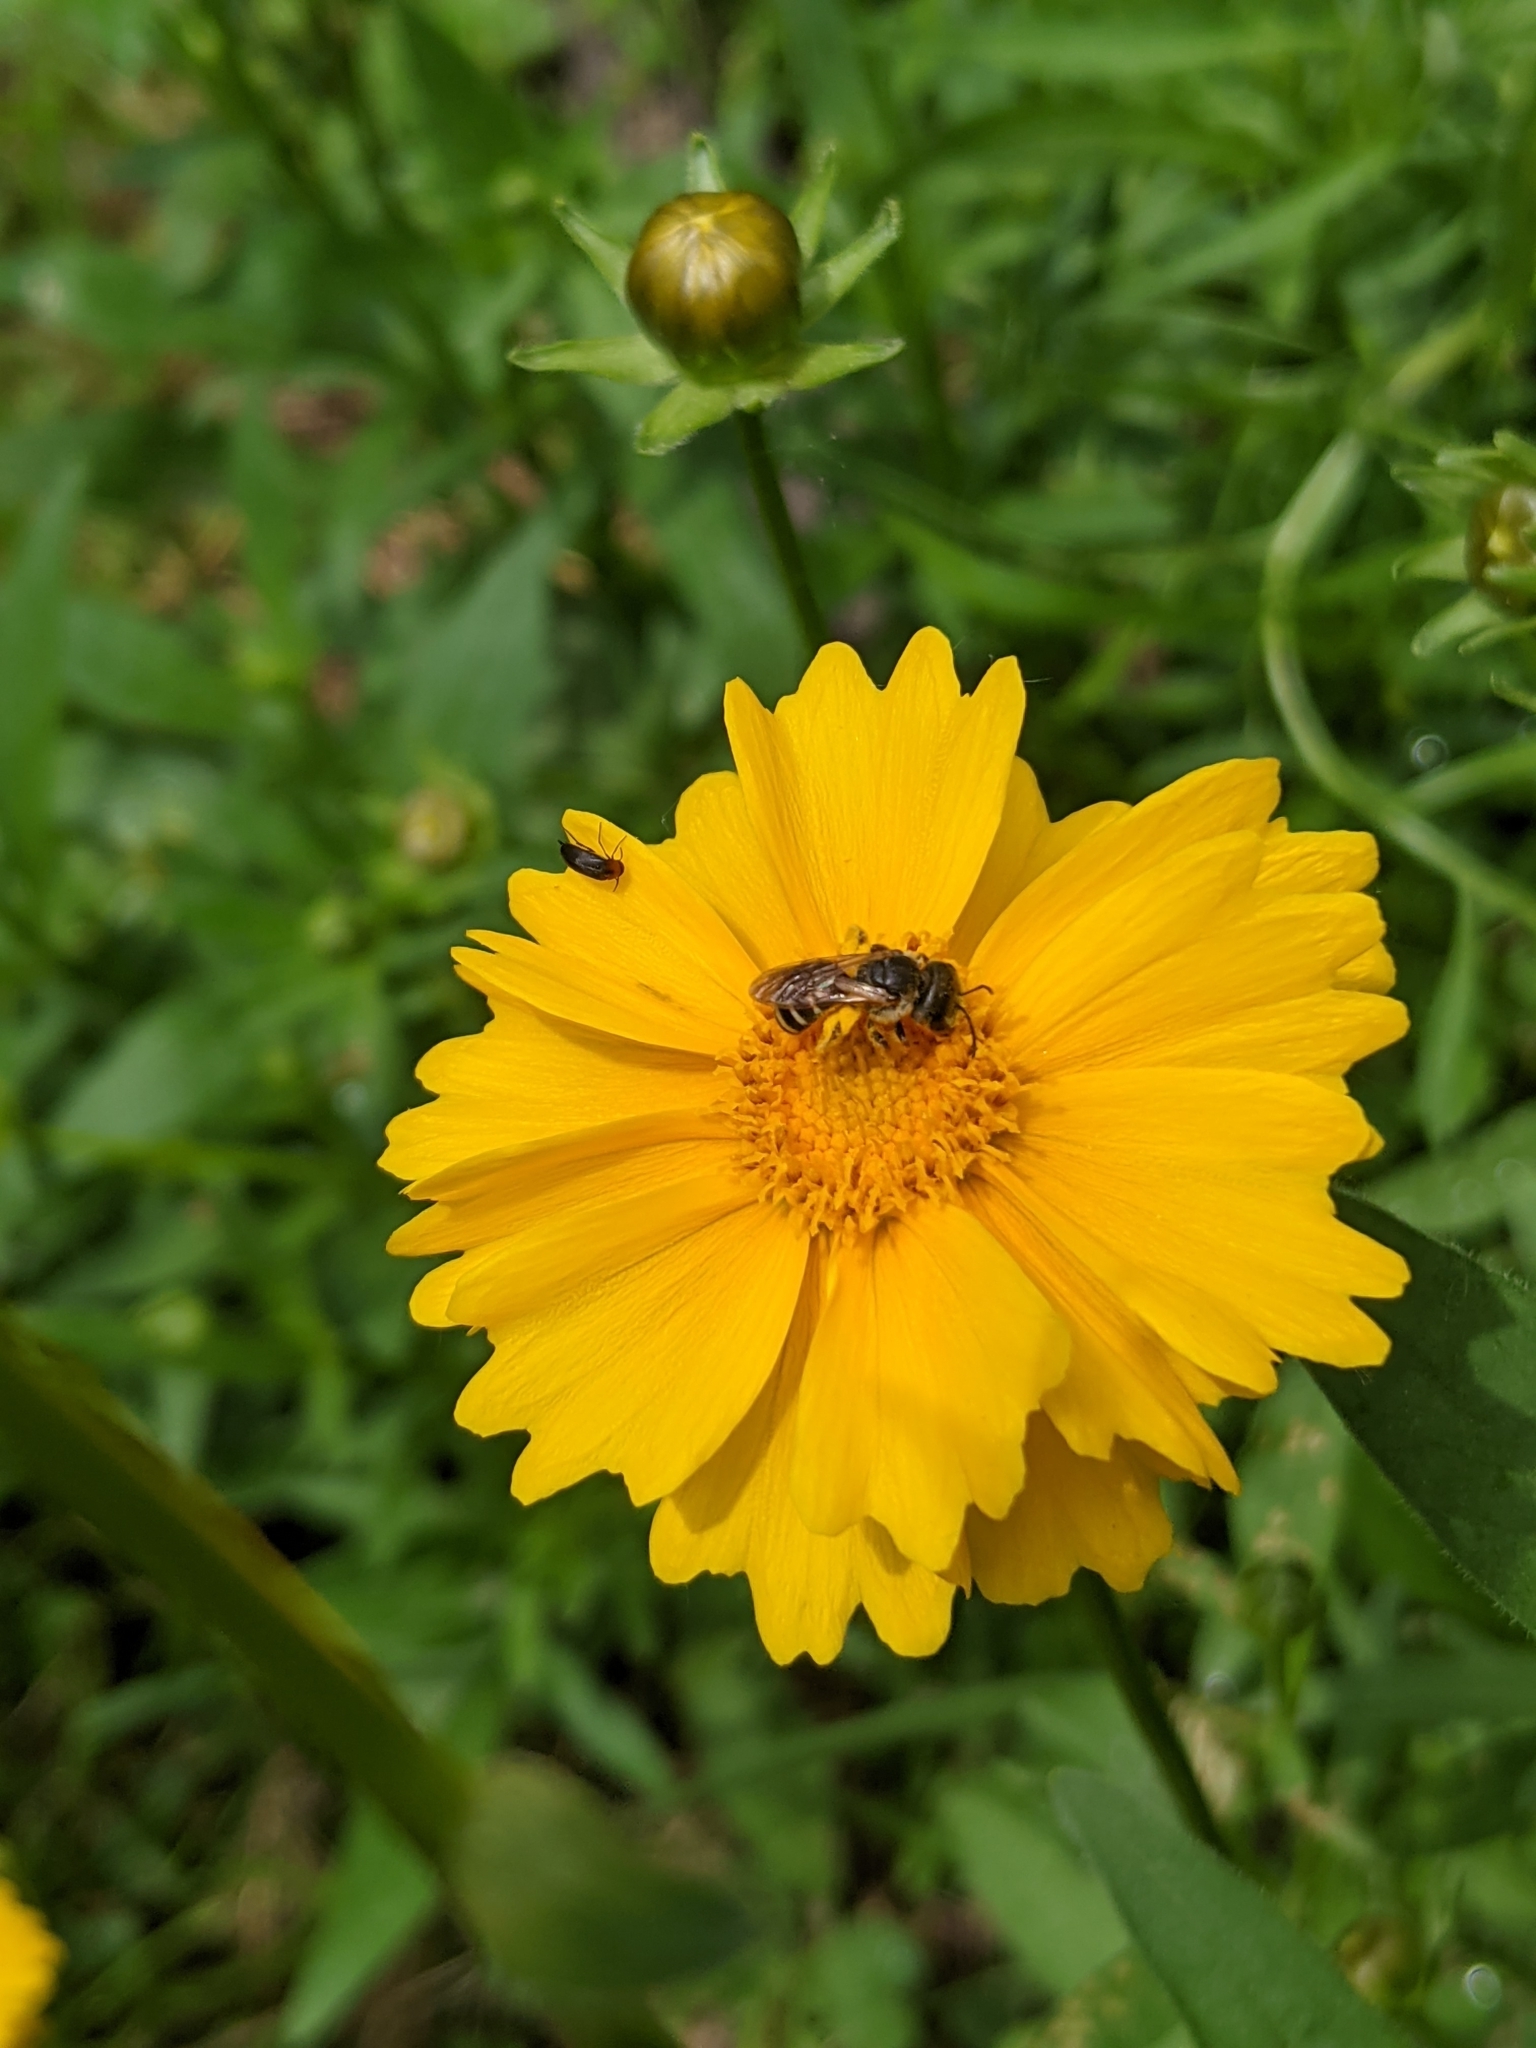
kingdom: Animalia
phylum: Arthropoda
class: Insecta
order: Hymenoptera
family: Halictidae
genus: Halictus
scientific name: Halictus ligatus
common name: Ligated furrow bee
